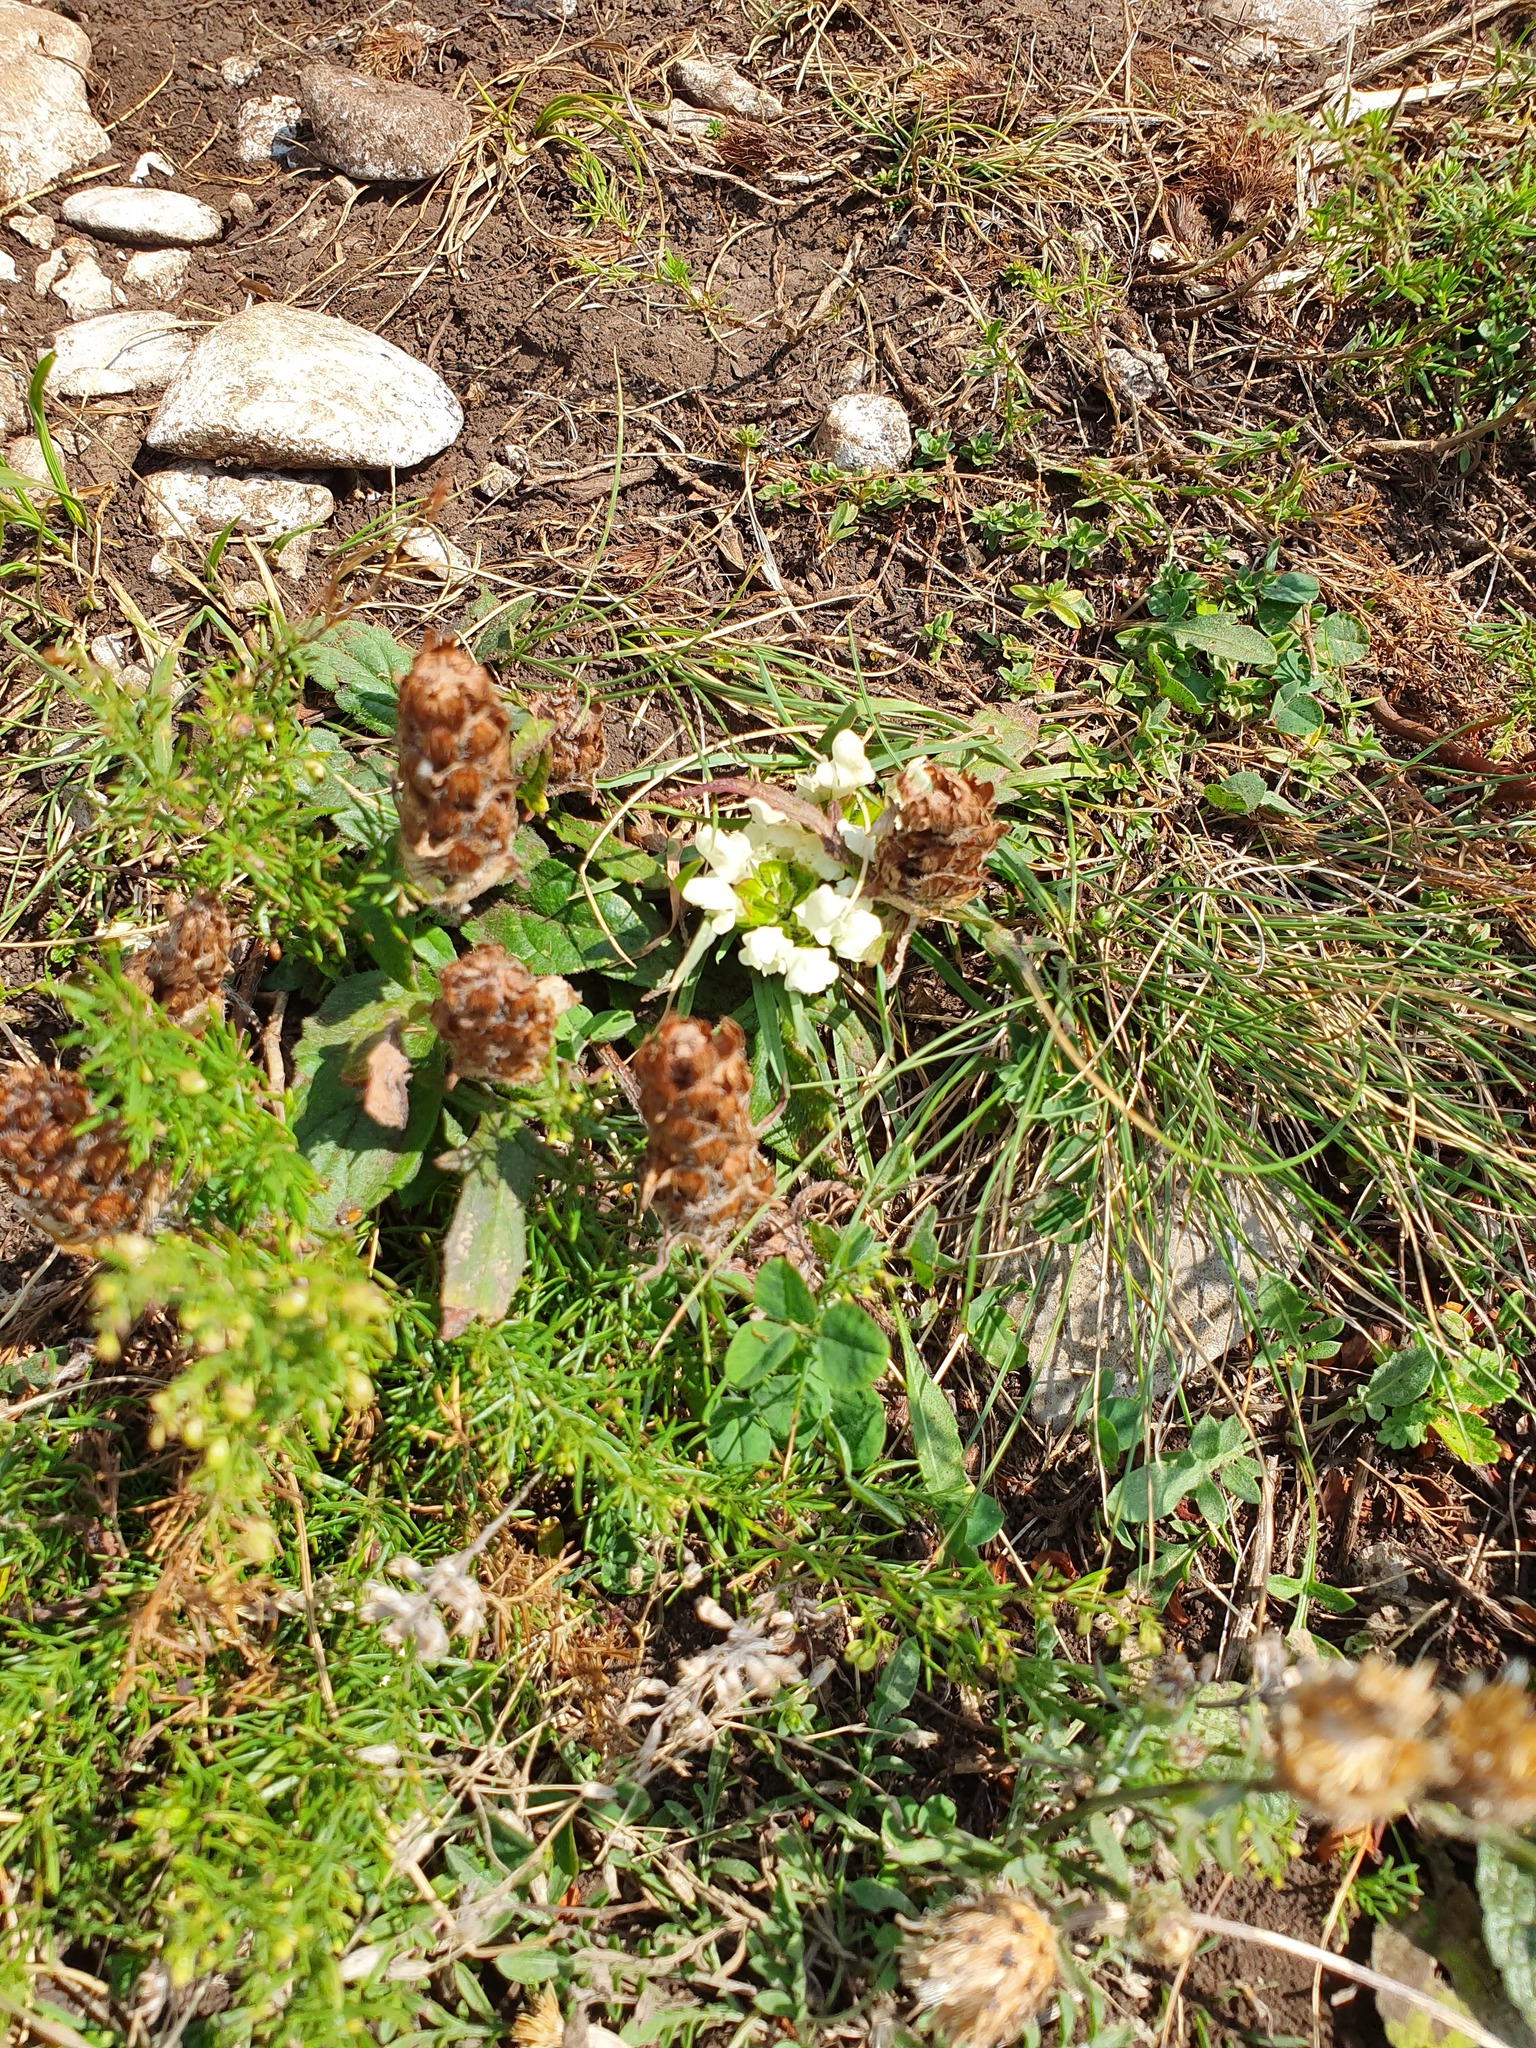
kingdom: Plantae
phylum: Tracheophyta
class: Magnoliopsida
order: Lamiales
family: Lamiaceae
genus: Prunella
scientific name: Prunella laciniata
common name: Cut-leaved selfheal
